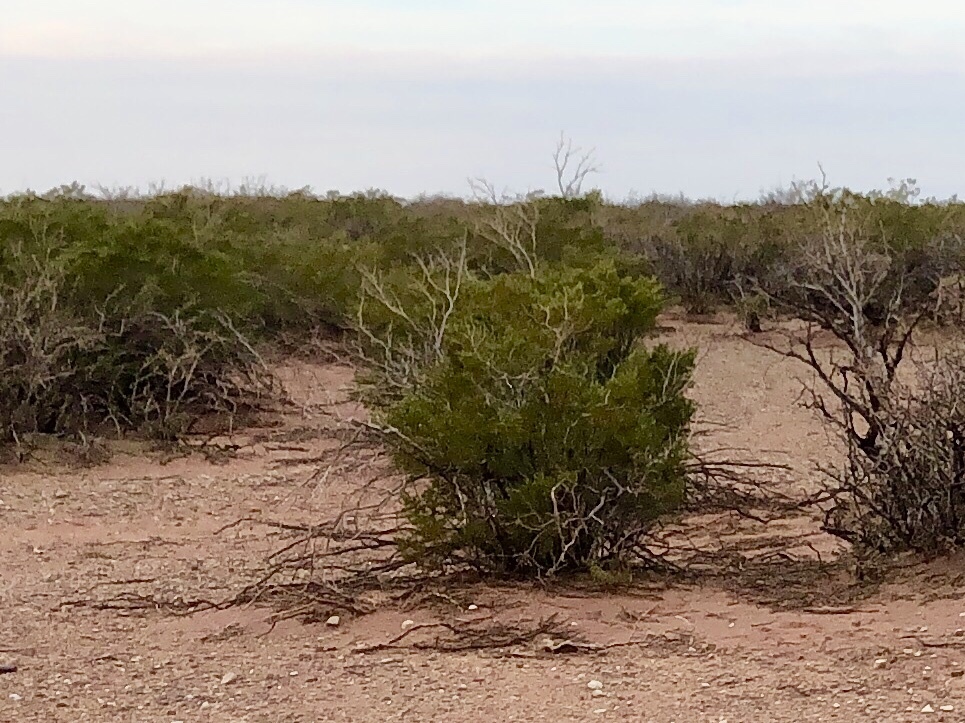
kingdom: Plantae
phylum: Tracheophyta
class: Magnoliopsida
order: Zygophyllales
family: Zygophyllaceae
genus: Larrea
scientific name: Larrea tridentata
